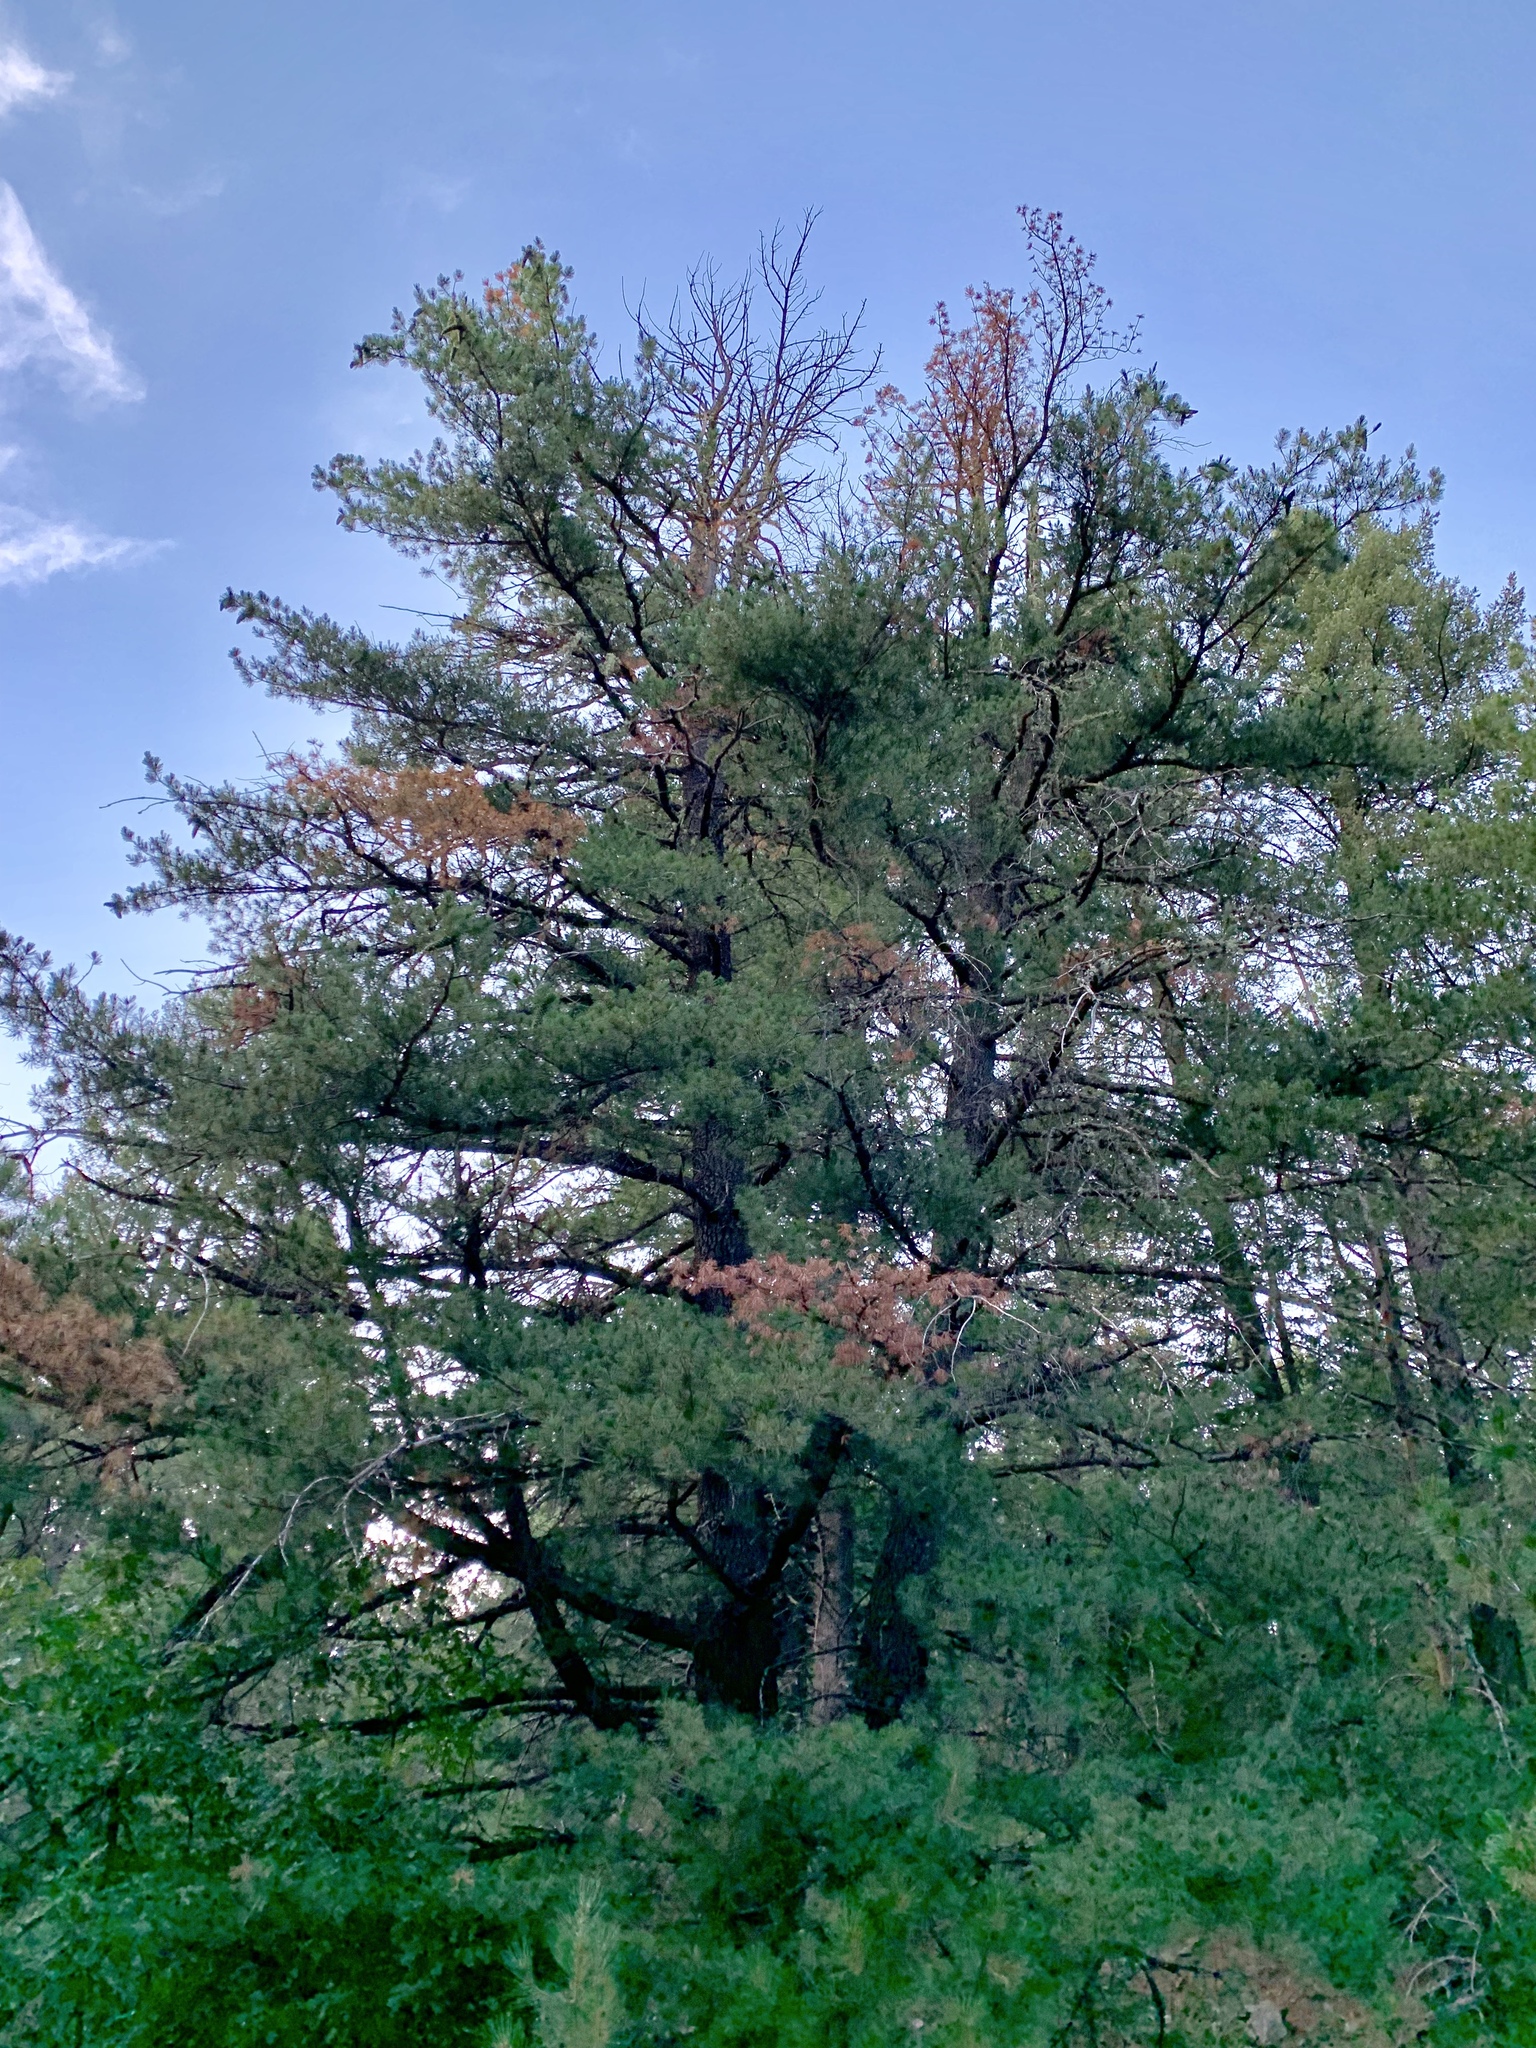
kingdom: Plantae
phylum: Tracheophyta
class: Pinopsida
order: Pinales
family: Pinaceae
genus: Pinus
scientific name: Pinus strobiformis
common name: Southwestern white pine
